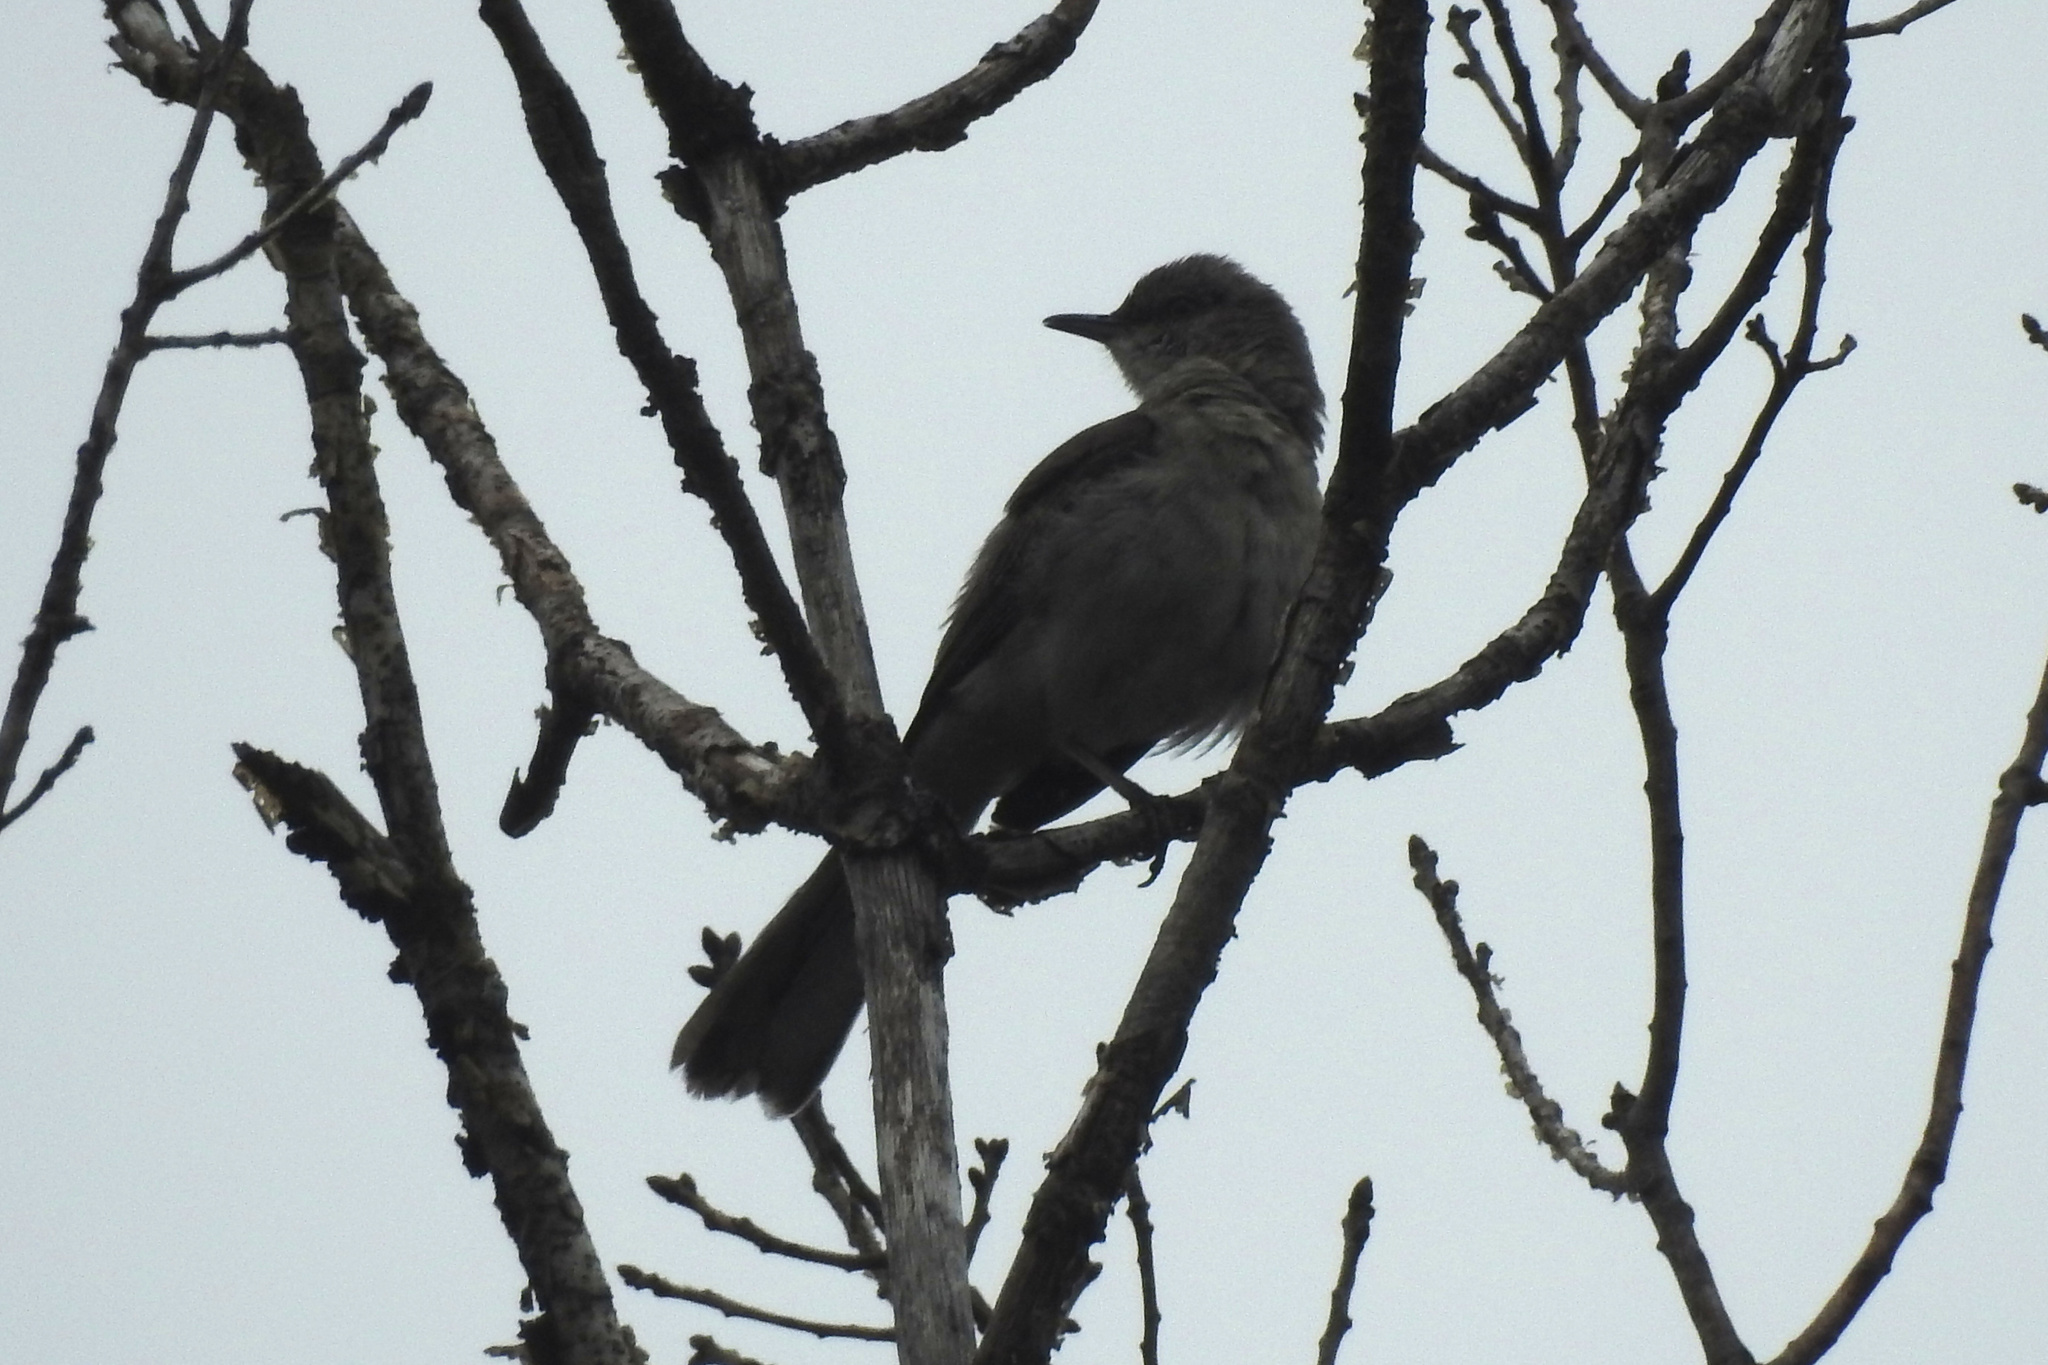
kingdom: Animalia
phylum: Chordata
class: Aves
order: Passeriformes
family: Mimidae
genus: Mimus
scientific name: Mimus polyglottos
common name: Northern mockingbird
